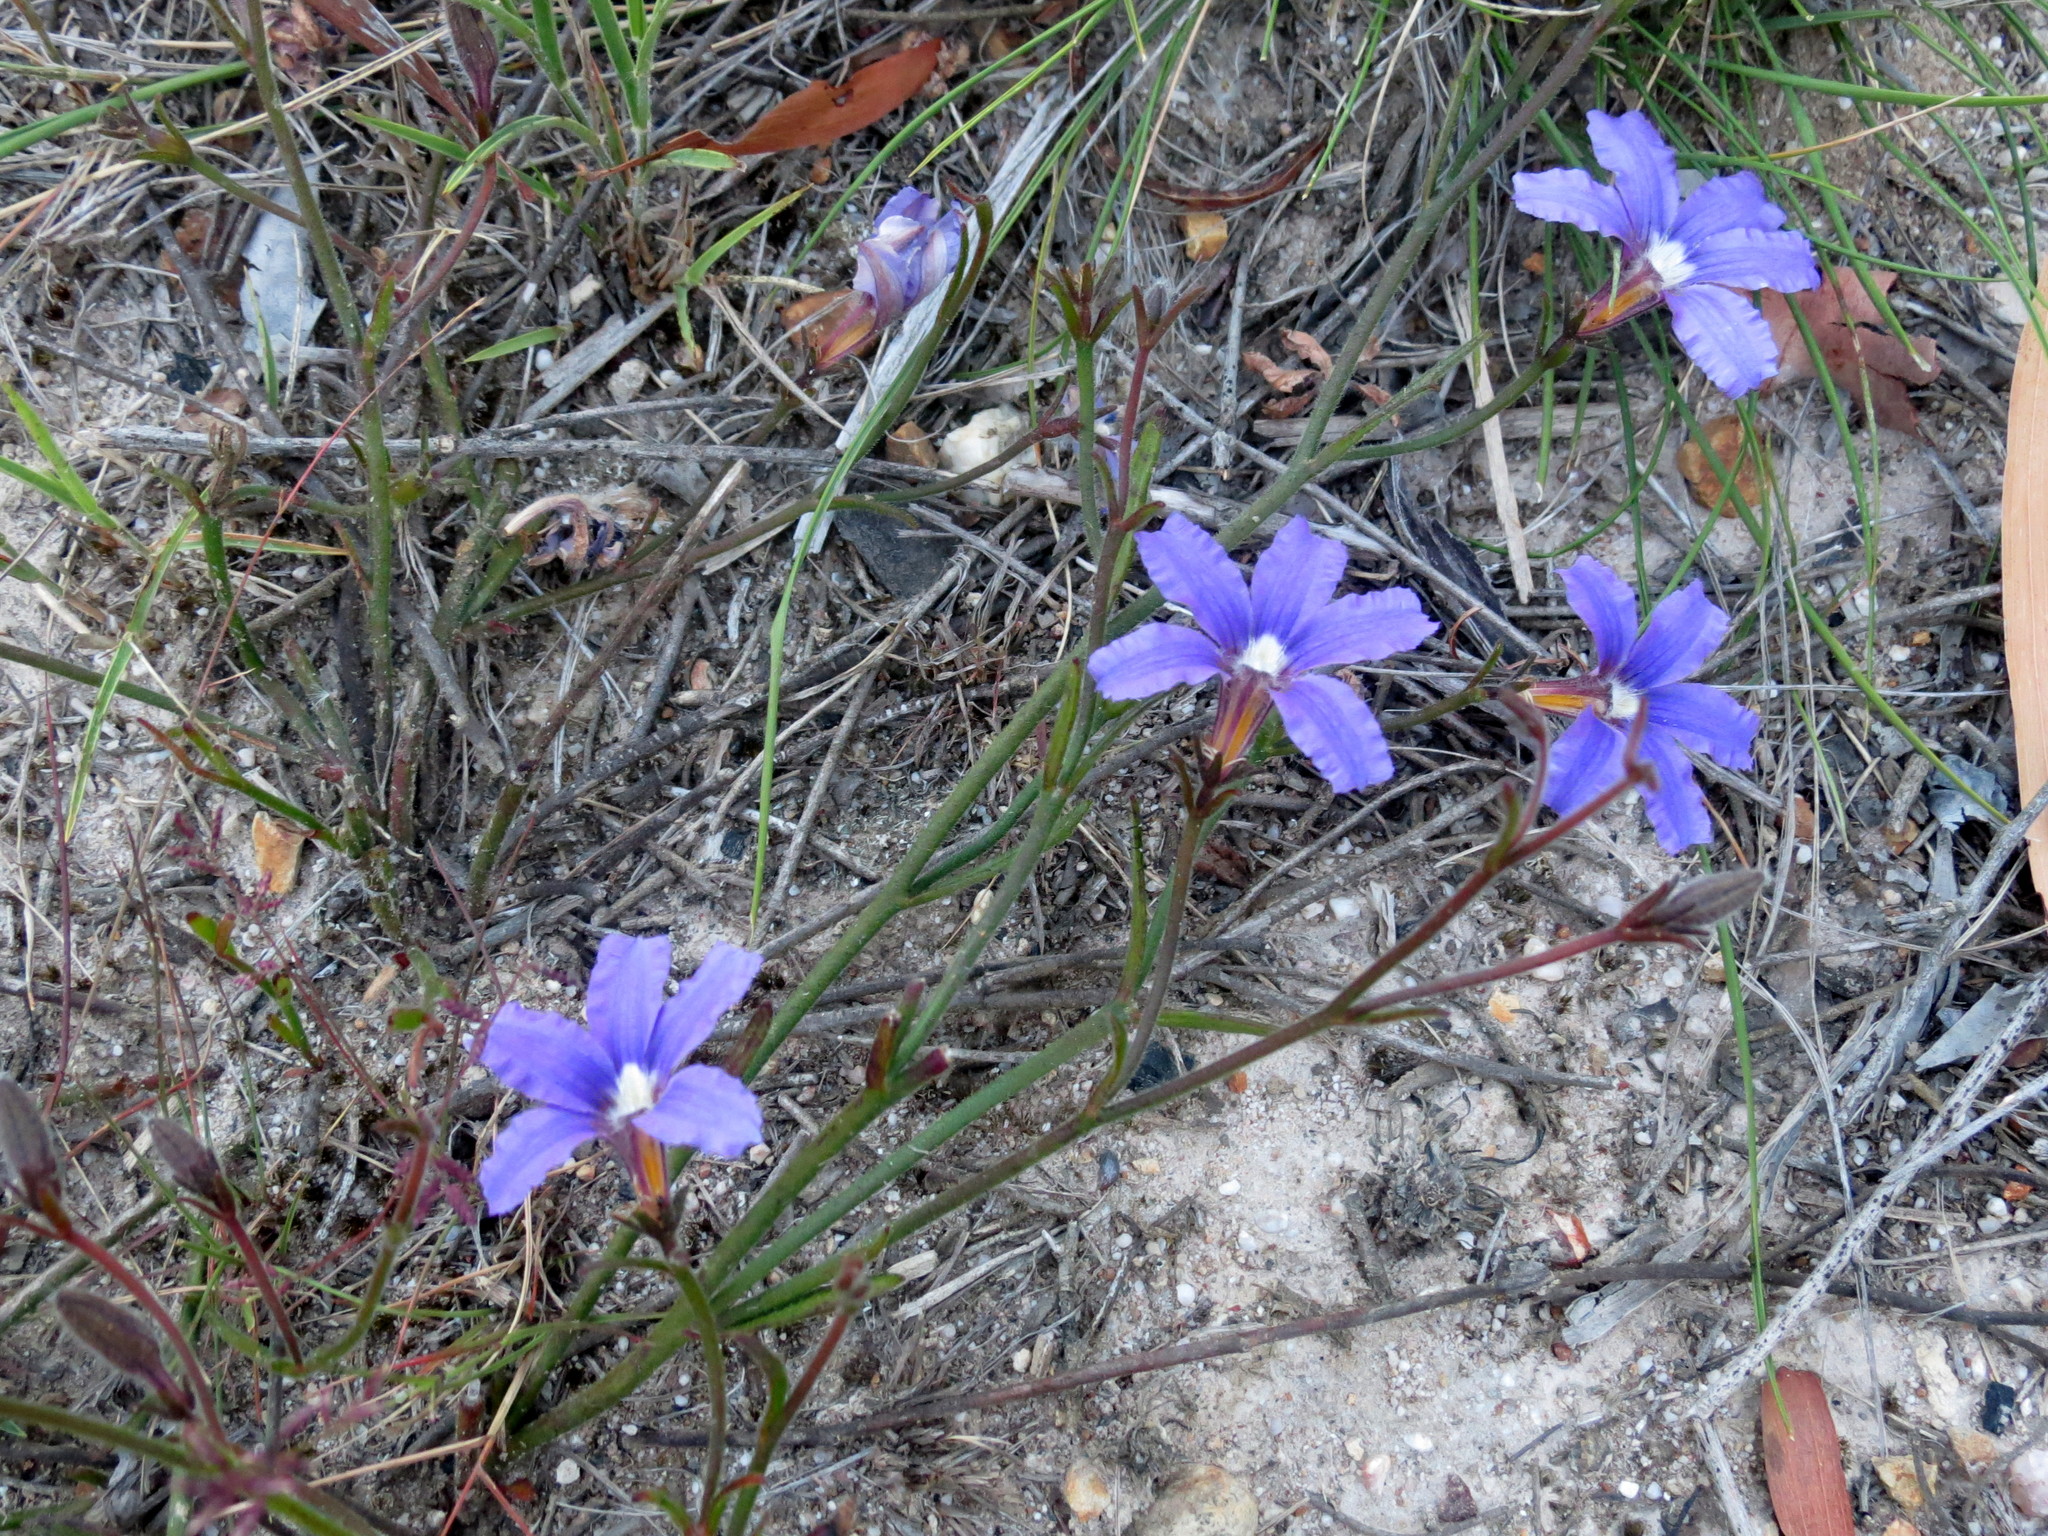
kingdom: Plantae
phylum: Tracheophyta
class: Magnoliopsida
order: Asterales
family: Goodeniaceae
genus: Scaevola
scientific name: Scaevola ramosissima
